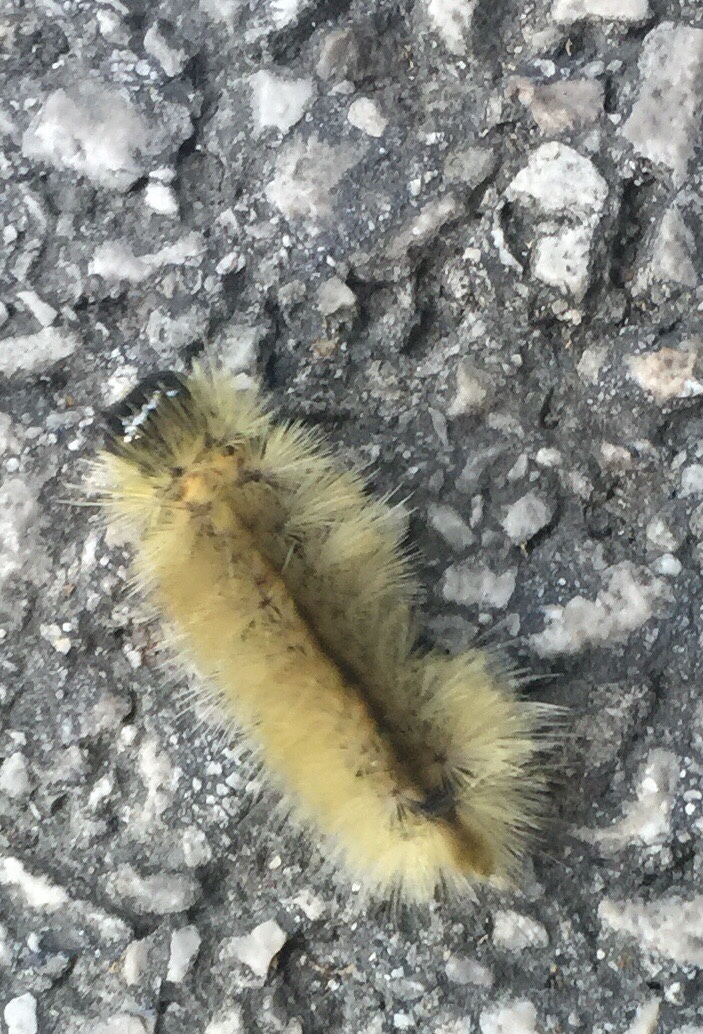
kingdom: Animalia
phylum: Arthropoda
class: Insecta
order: Lepidoptera
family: Erebidae
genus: Halysidota
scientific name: Halysidota tessellaris
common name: Banded tussock moth
